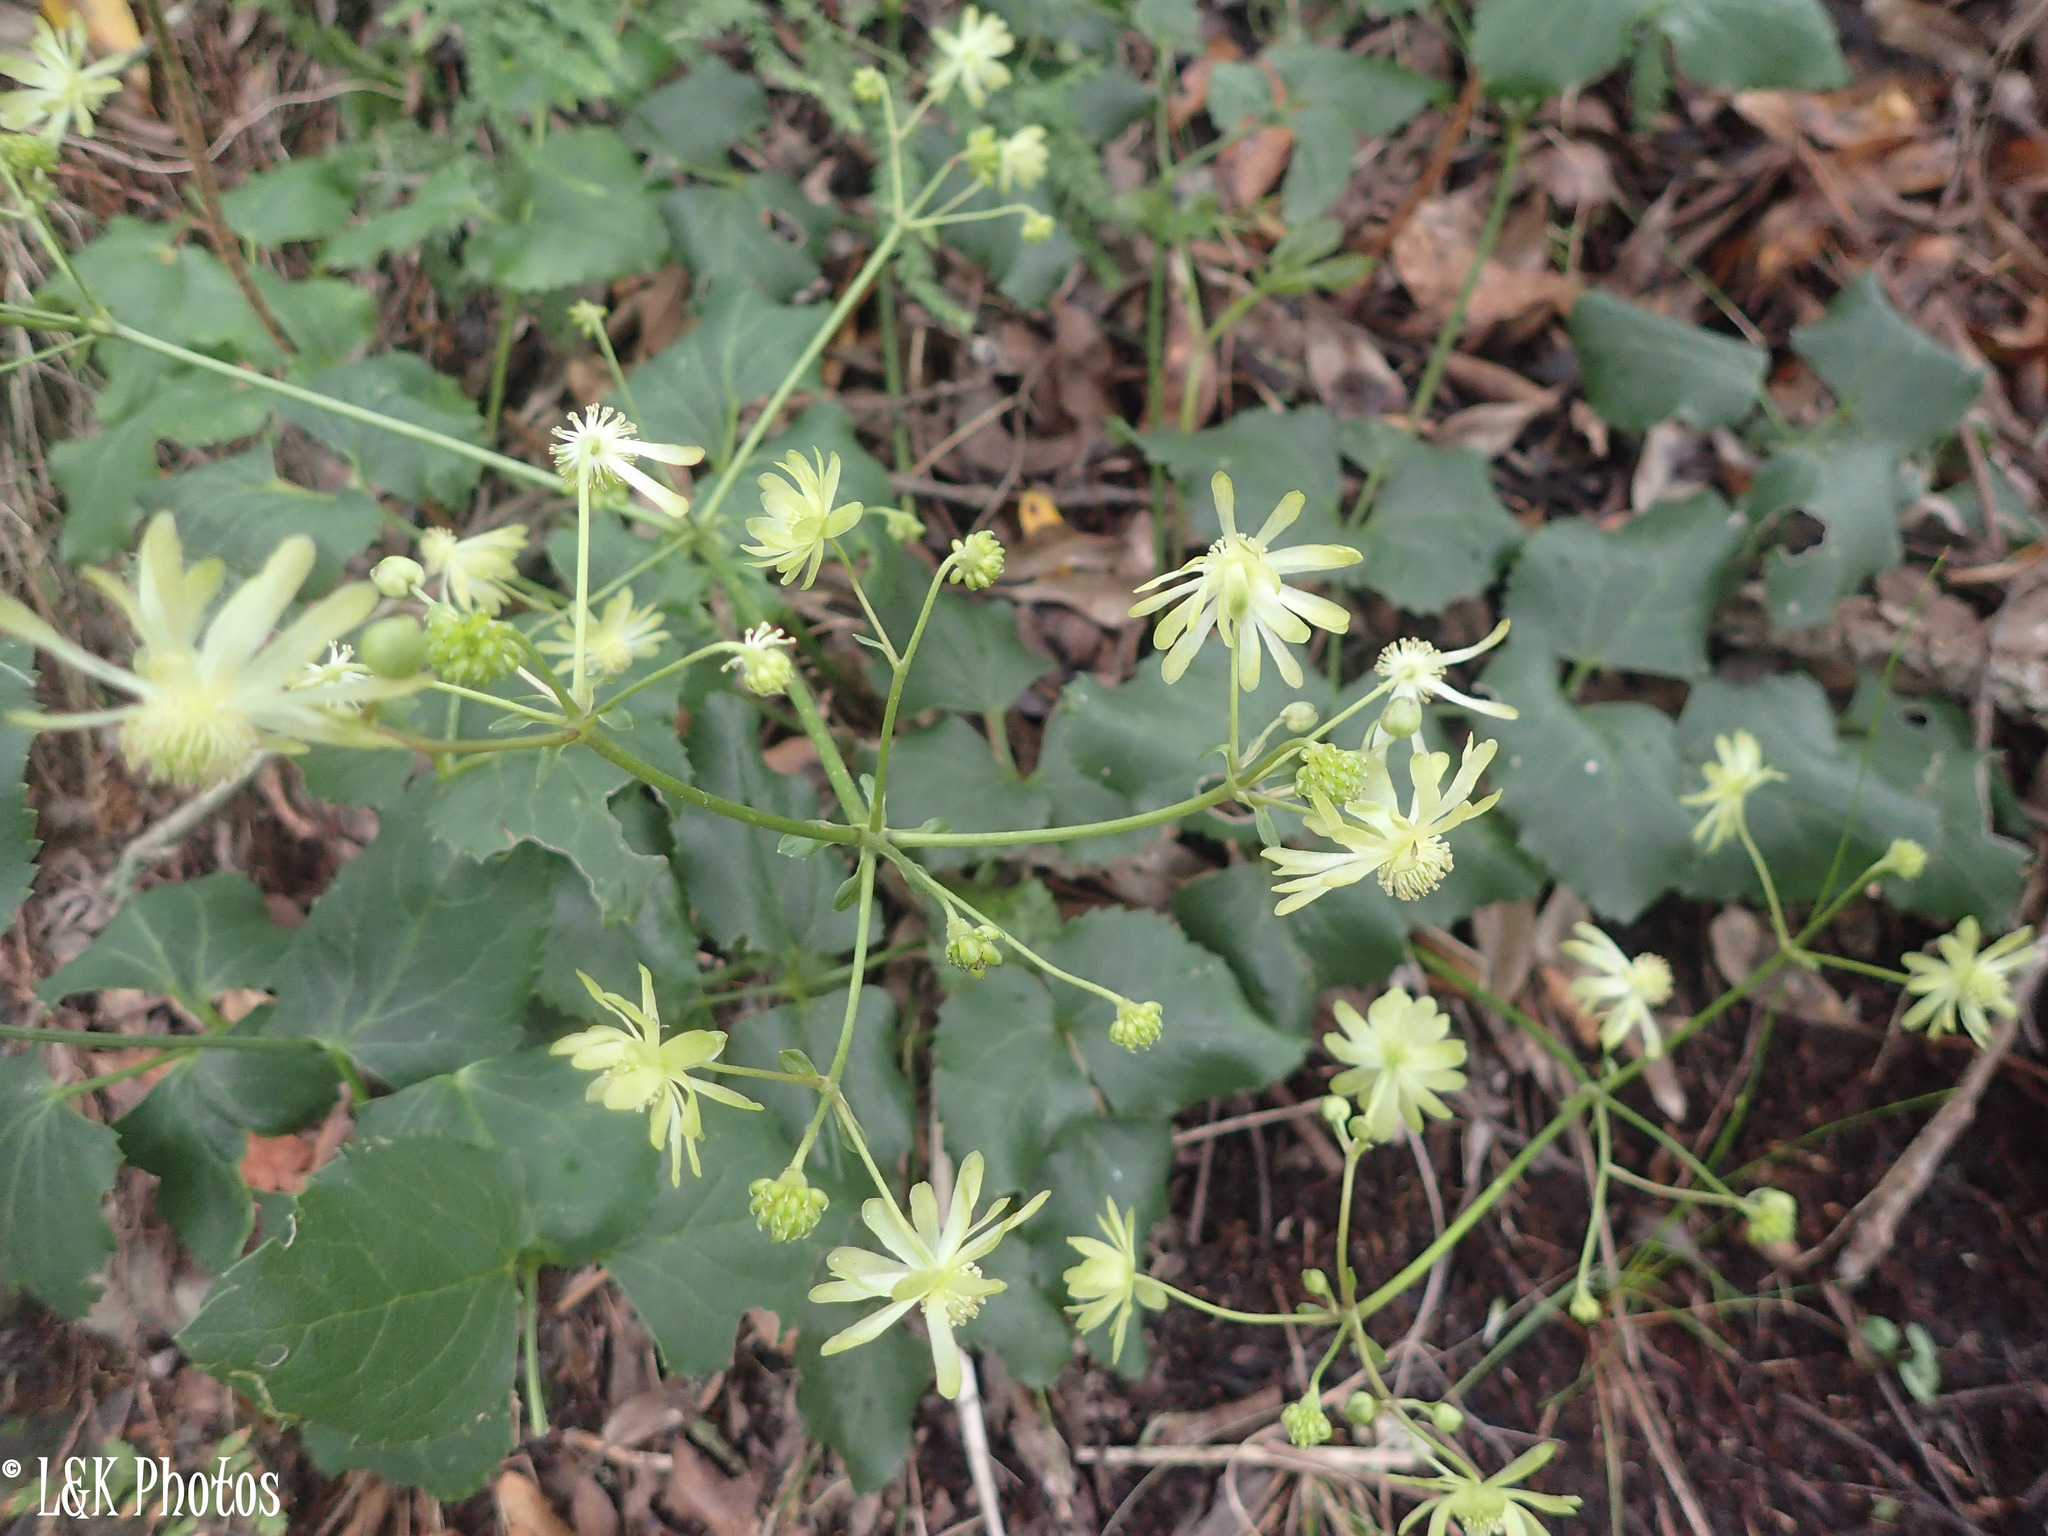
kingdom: Plantae
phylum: Tracheophyta
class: Magnoliopsida
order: Ranunculales
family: Ranunculaceae
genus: Knowltonia
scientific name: Knowltonia vesicatoria
